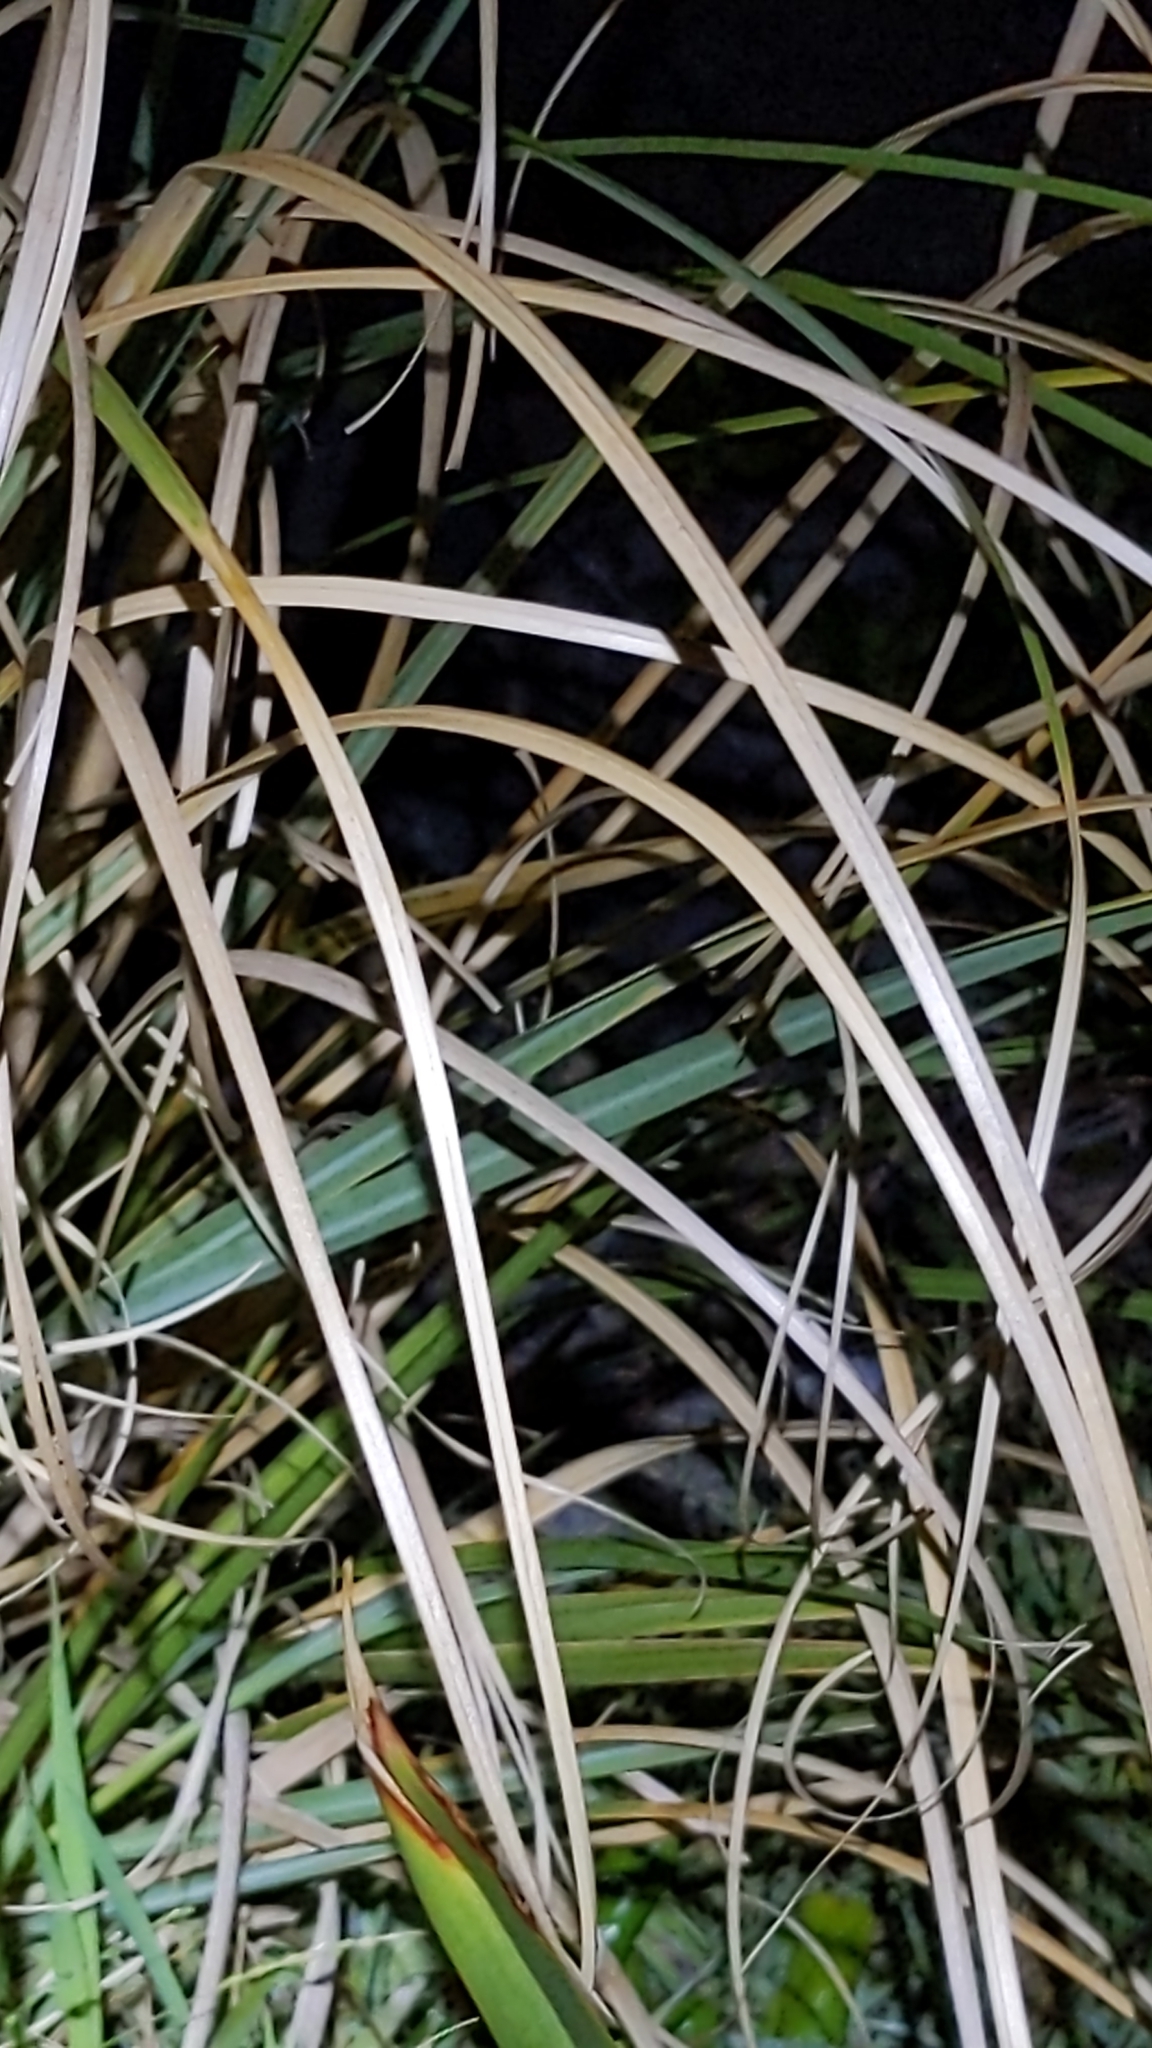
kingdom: Plantae
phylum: Tracheophyta
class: Liliopsida
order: Poales
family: Poaceae
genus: Cortaderia
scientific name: Cortaderia selloana
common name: Uruguayan pampas grass
